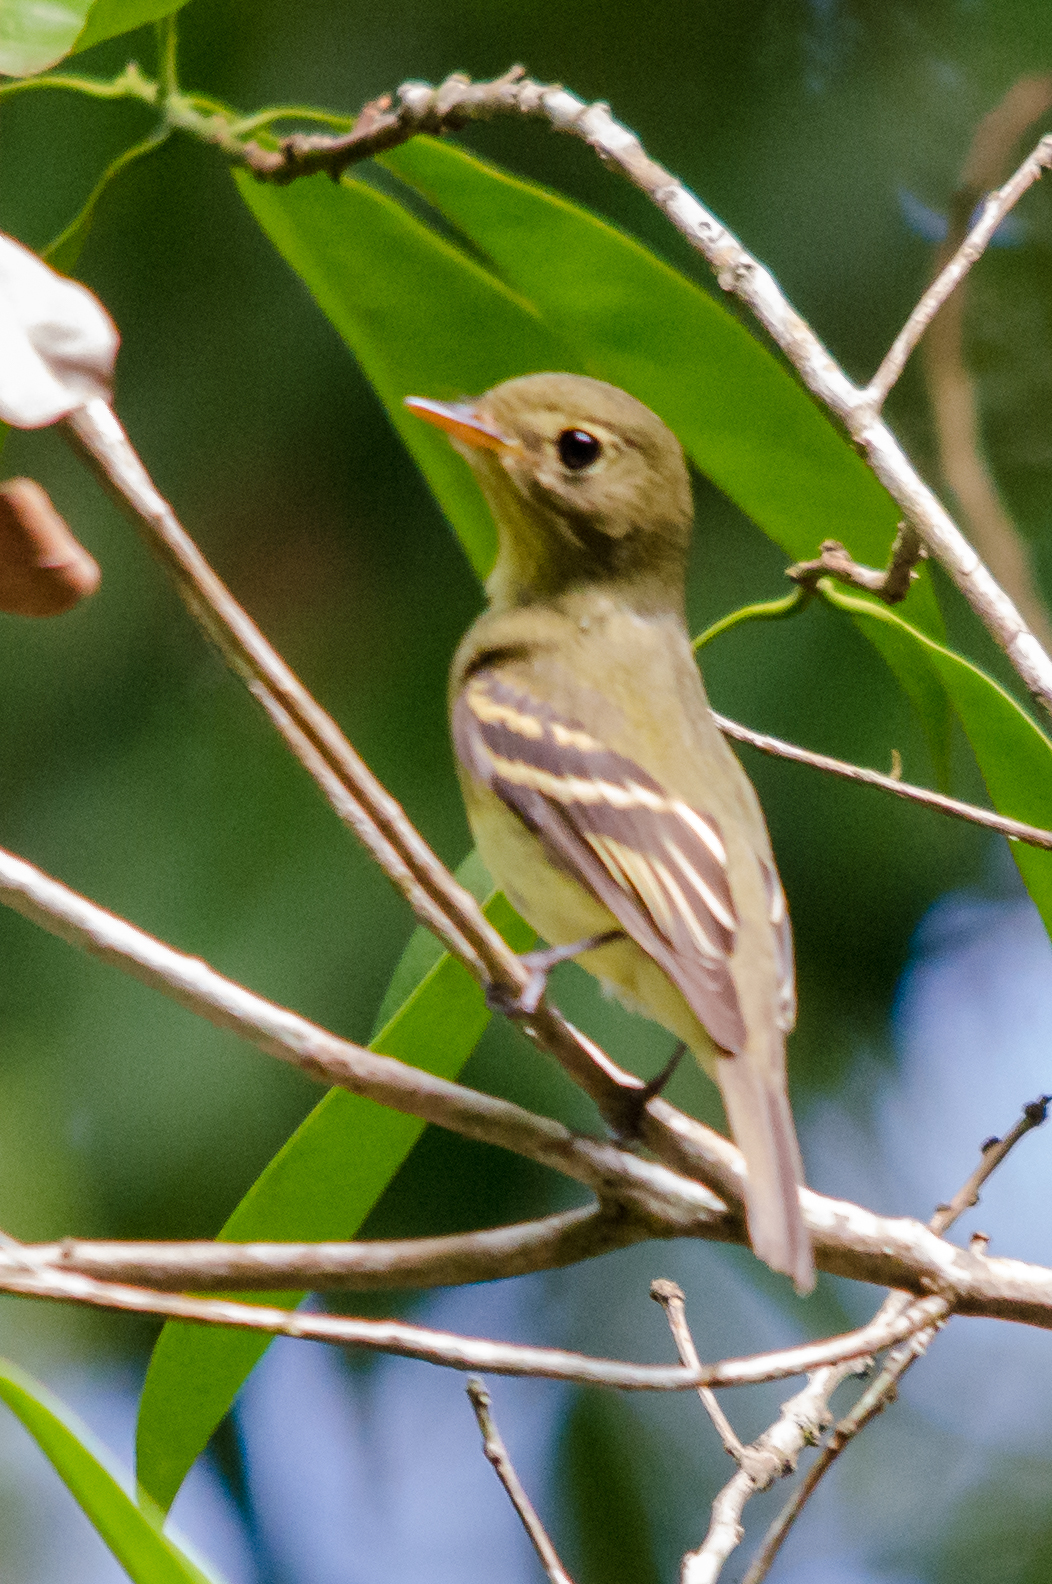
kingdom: Animalia
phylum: Chordata
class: Aves
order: Passeriformes
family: Tyrannidae
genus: Empidonax
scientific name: Empidonax flaviventris
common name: Yellow-bellied flycatcher
